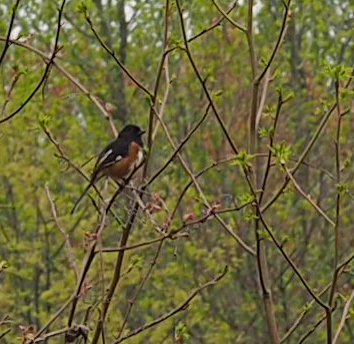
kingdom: Animalia
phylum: Chordata
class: Aves
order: Passeriformes
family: Passerellidae
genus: Pipilo
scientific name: Pipilo erythrophthalmus
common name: Eastern towhee
